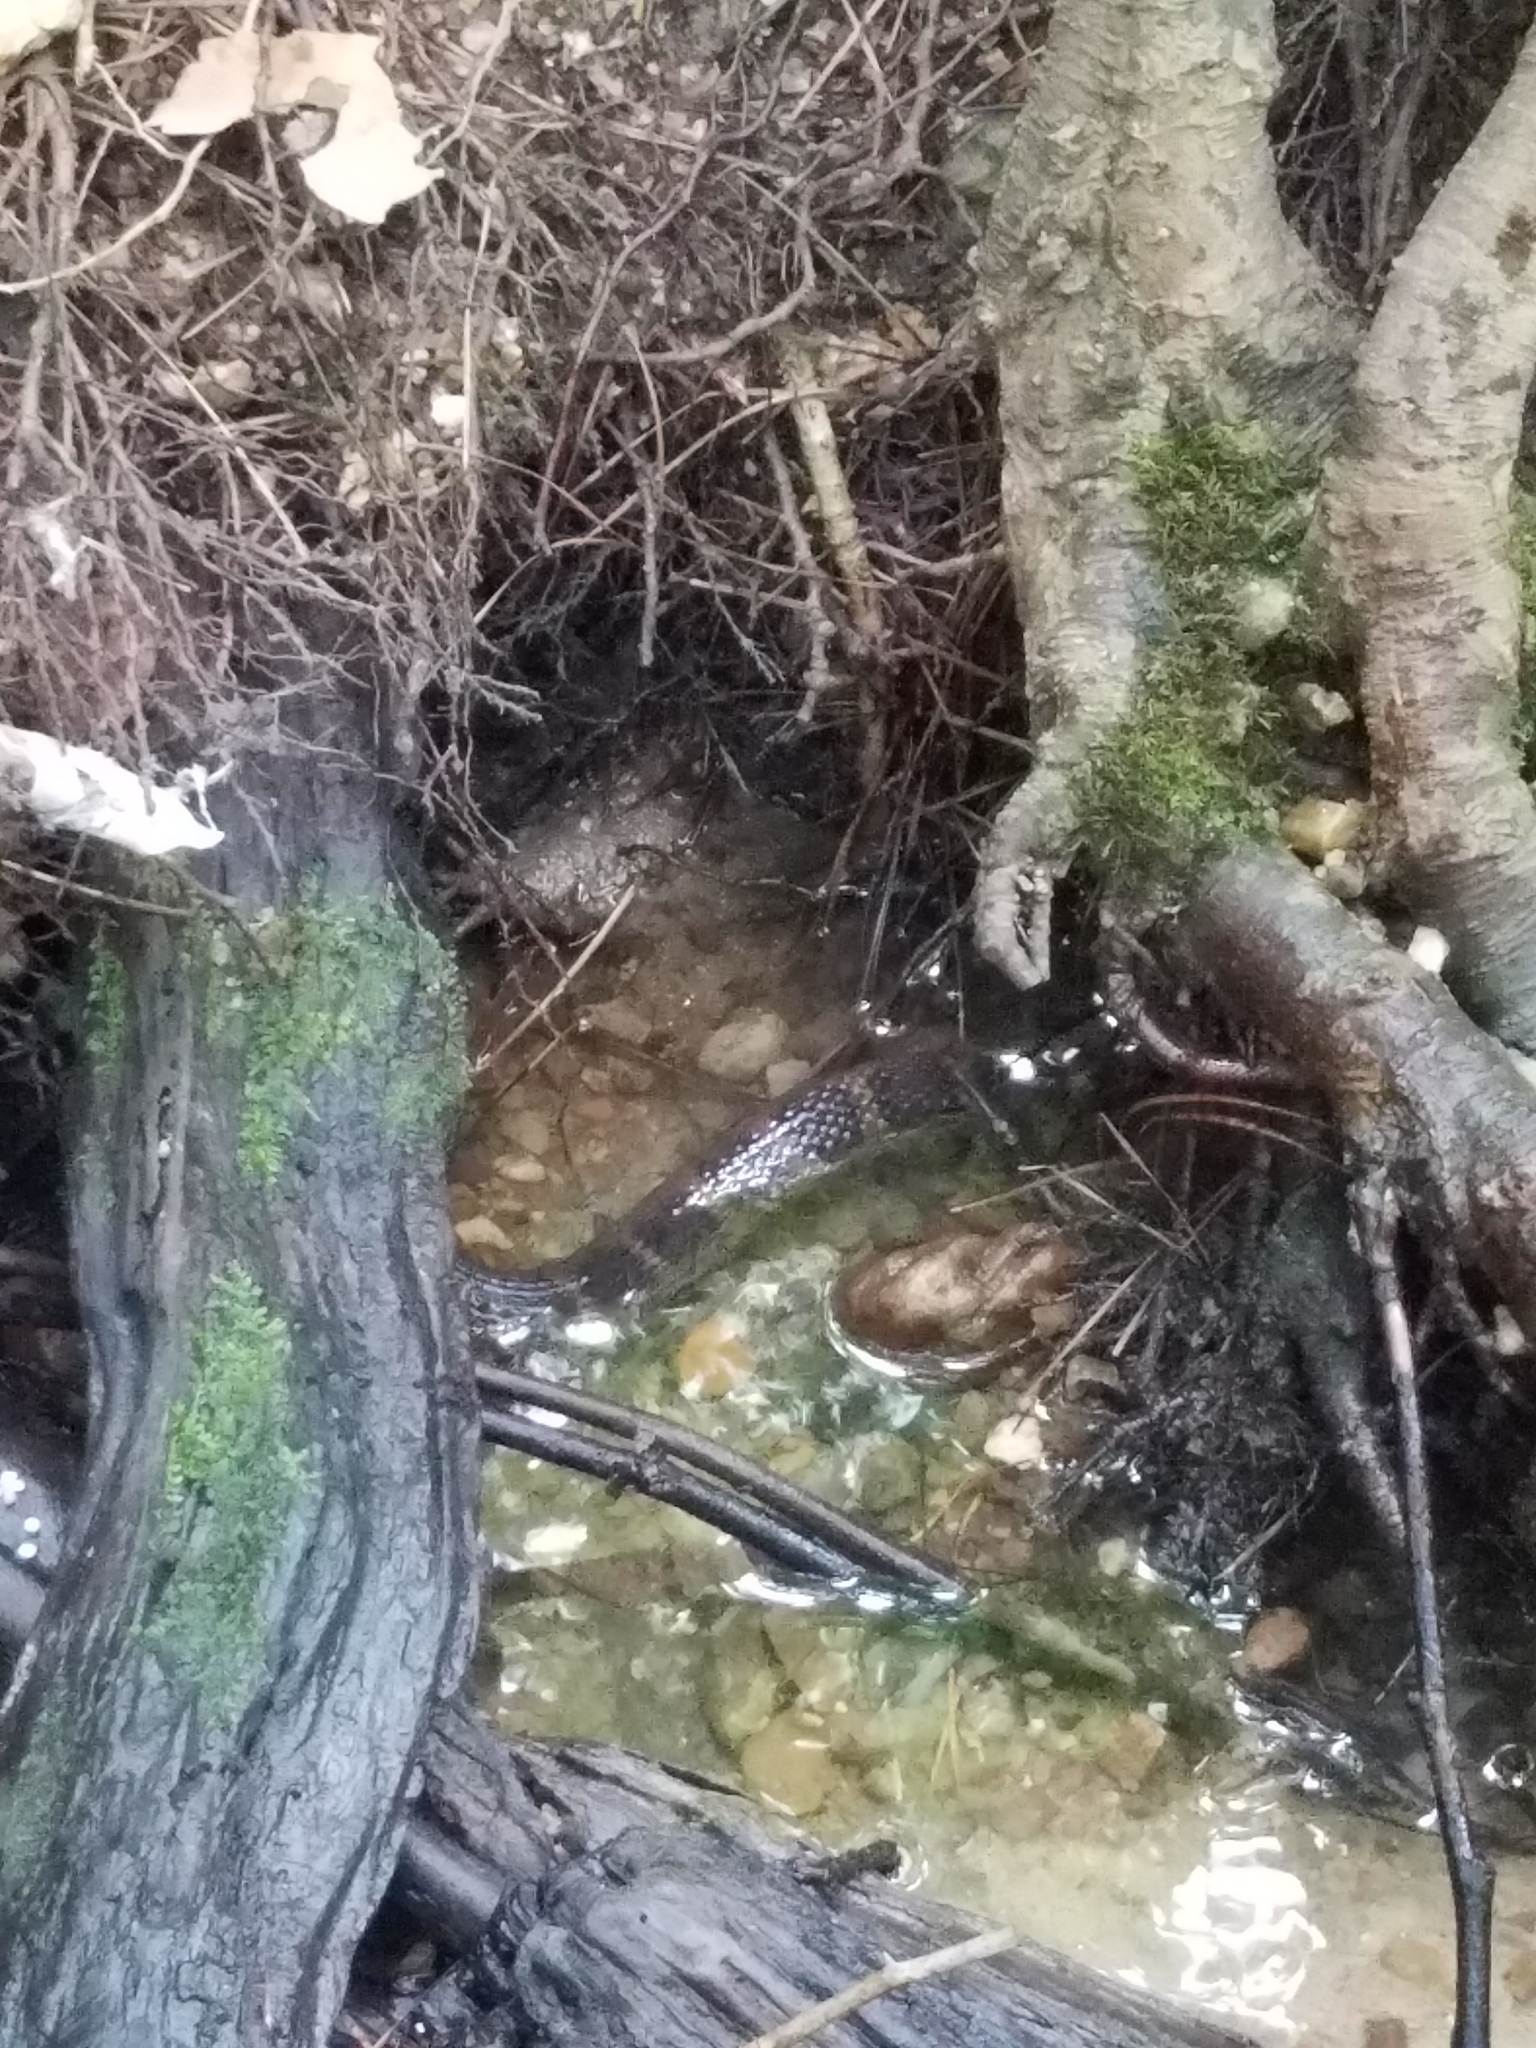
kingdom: Animalia
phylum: Chordata
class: Squamata
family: Colubridae
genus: Nerodia
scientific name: Nerodia sipedon
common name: Northern water snake
